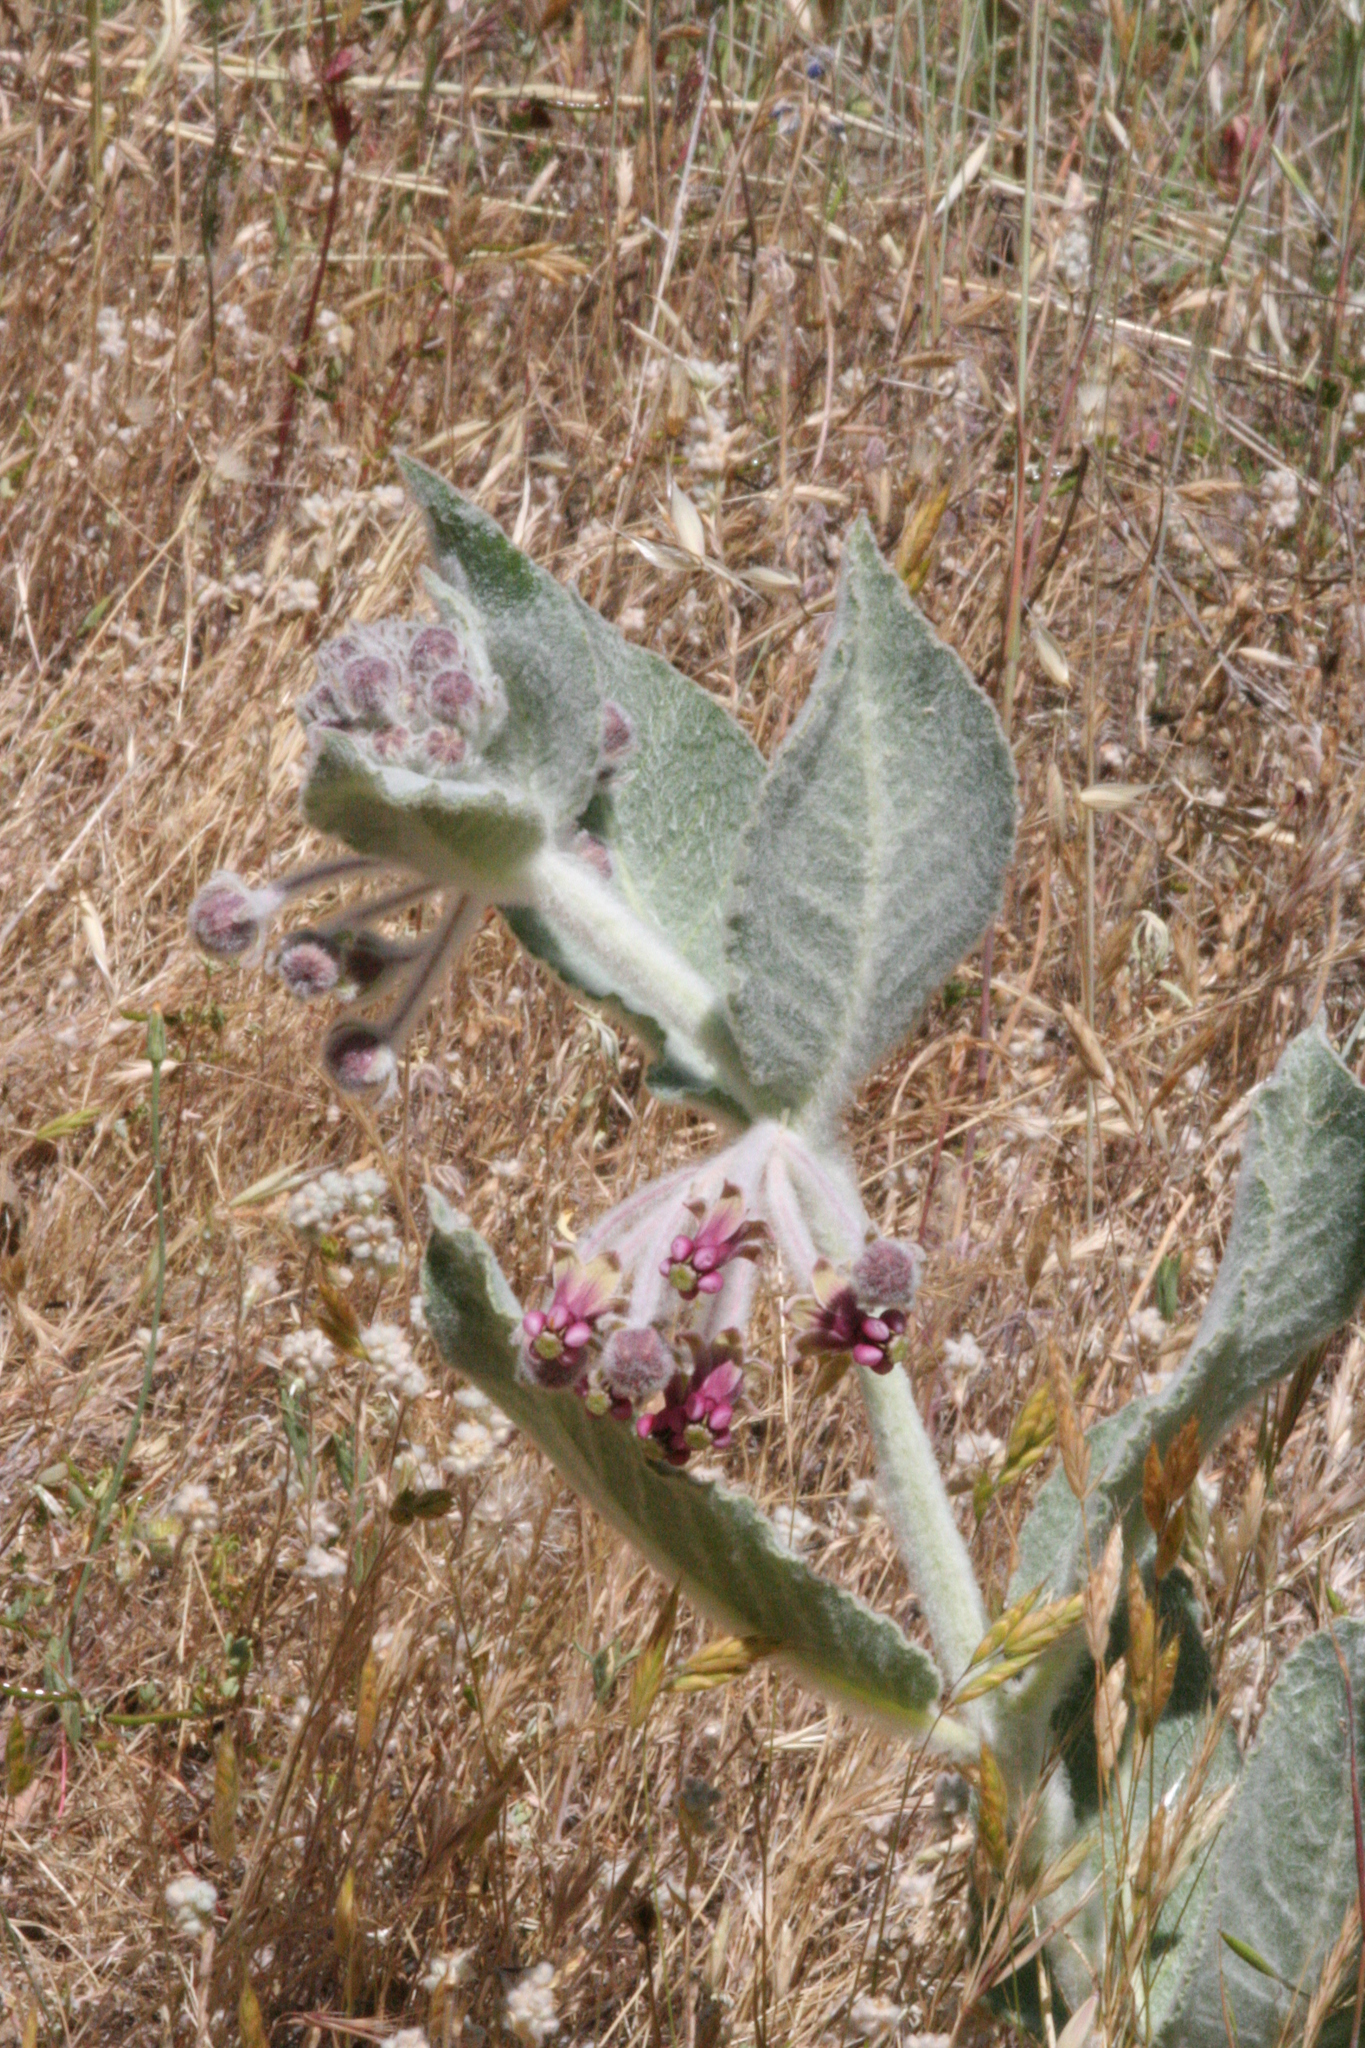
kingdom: Plantae
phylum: Tracheophyta
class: Magnoliopsida
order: Gentianales
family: Apocynaceae
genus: Asclepias
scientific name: Asclepias californica
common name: California milkweed
